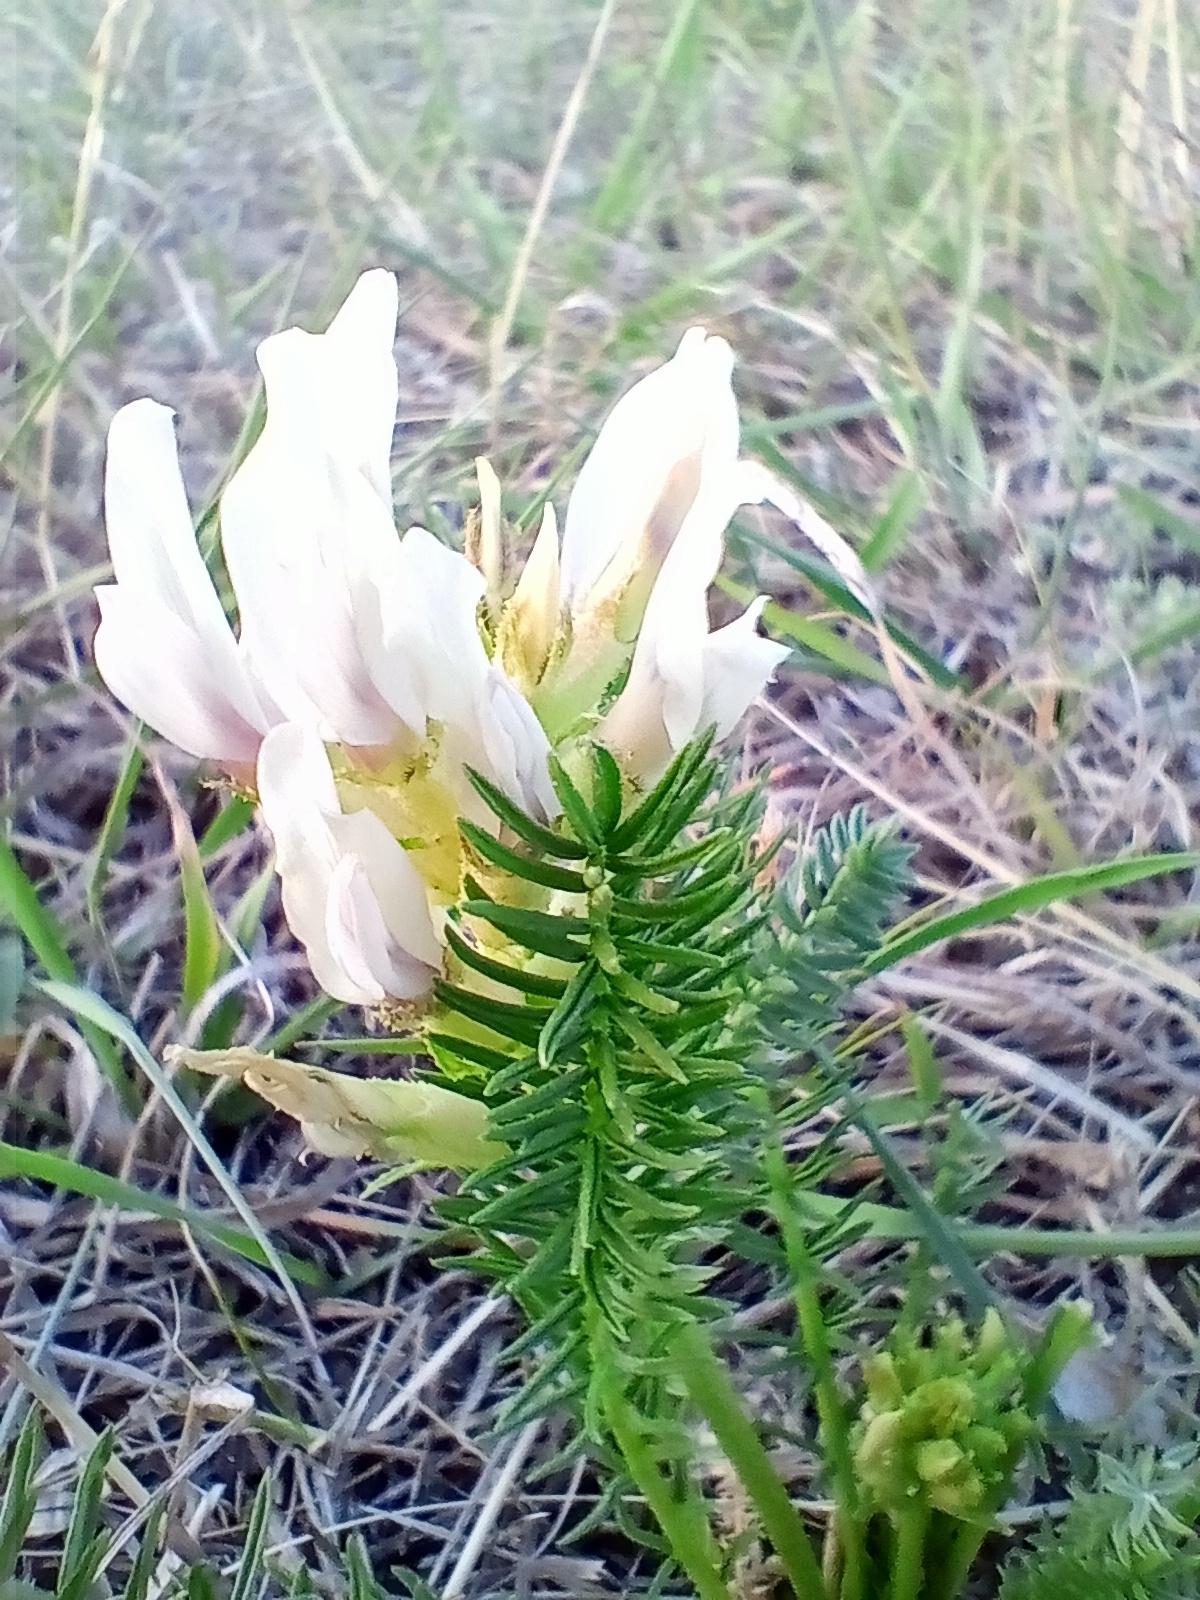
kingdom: Plantae
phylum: Tracheophyta
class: Magnoliopsida
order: Fabales
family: Fabaceae
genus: Oxytropis
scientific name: Oxytropis muricata
